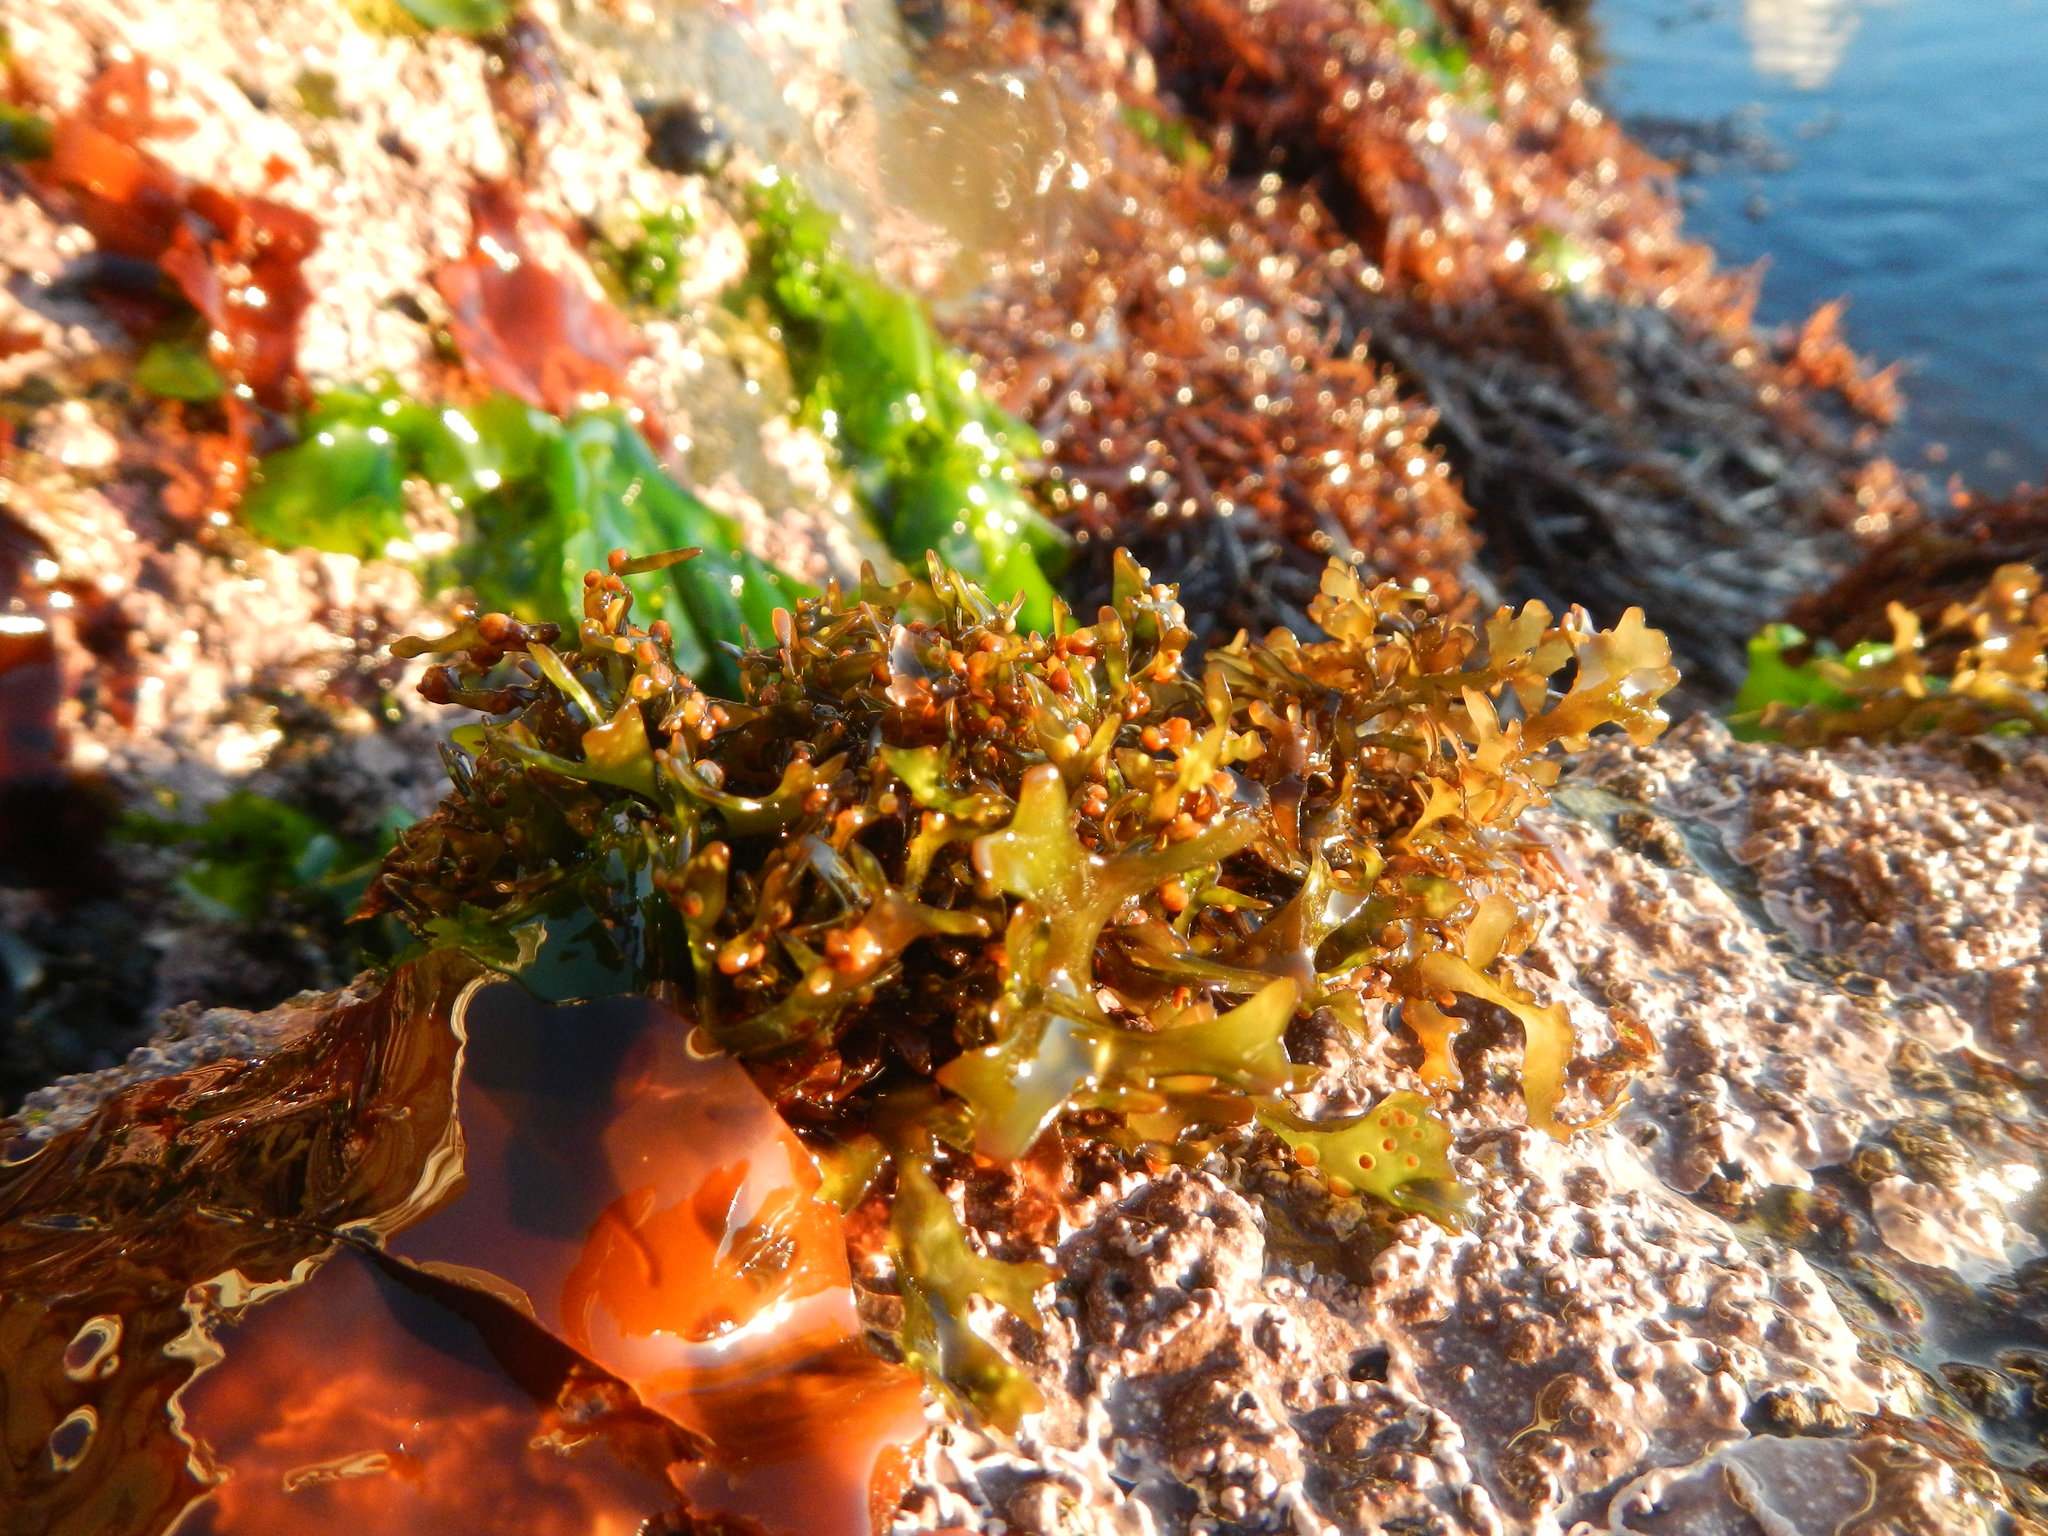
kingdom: Plantae
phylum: Rhodophyta
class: Florideophyceae
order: Gigartinales
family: Gigartinaceae
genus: Mazzaella
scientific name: Mazzaella
